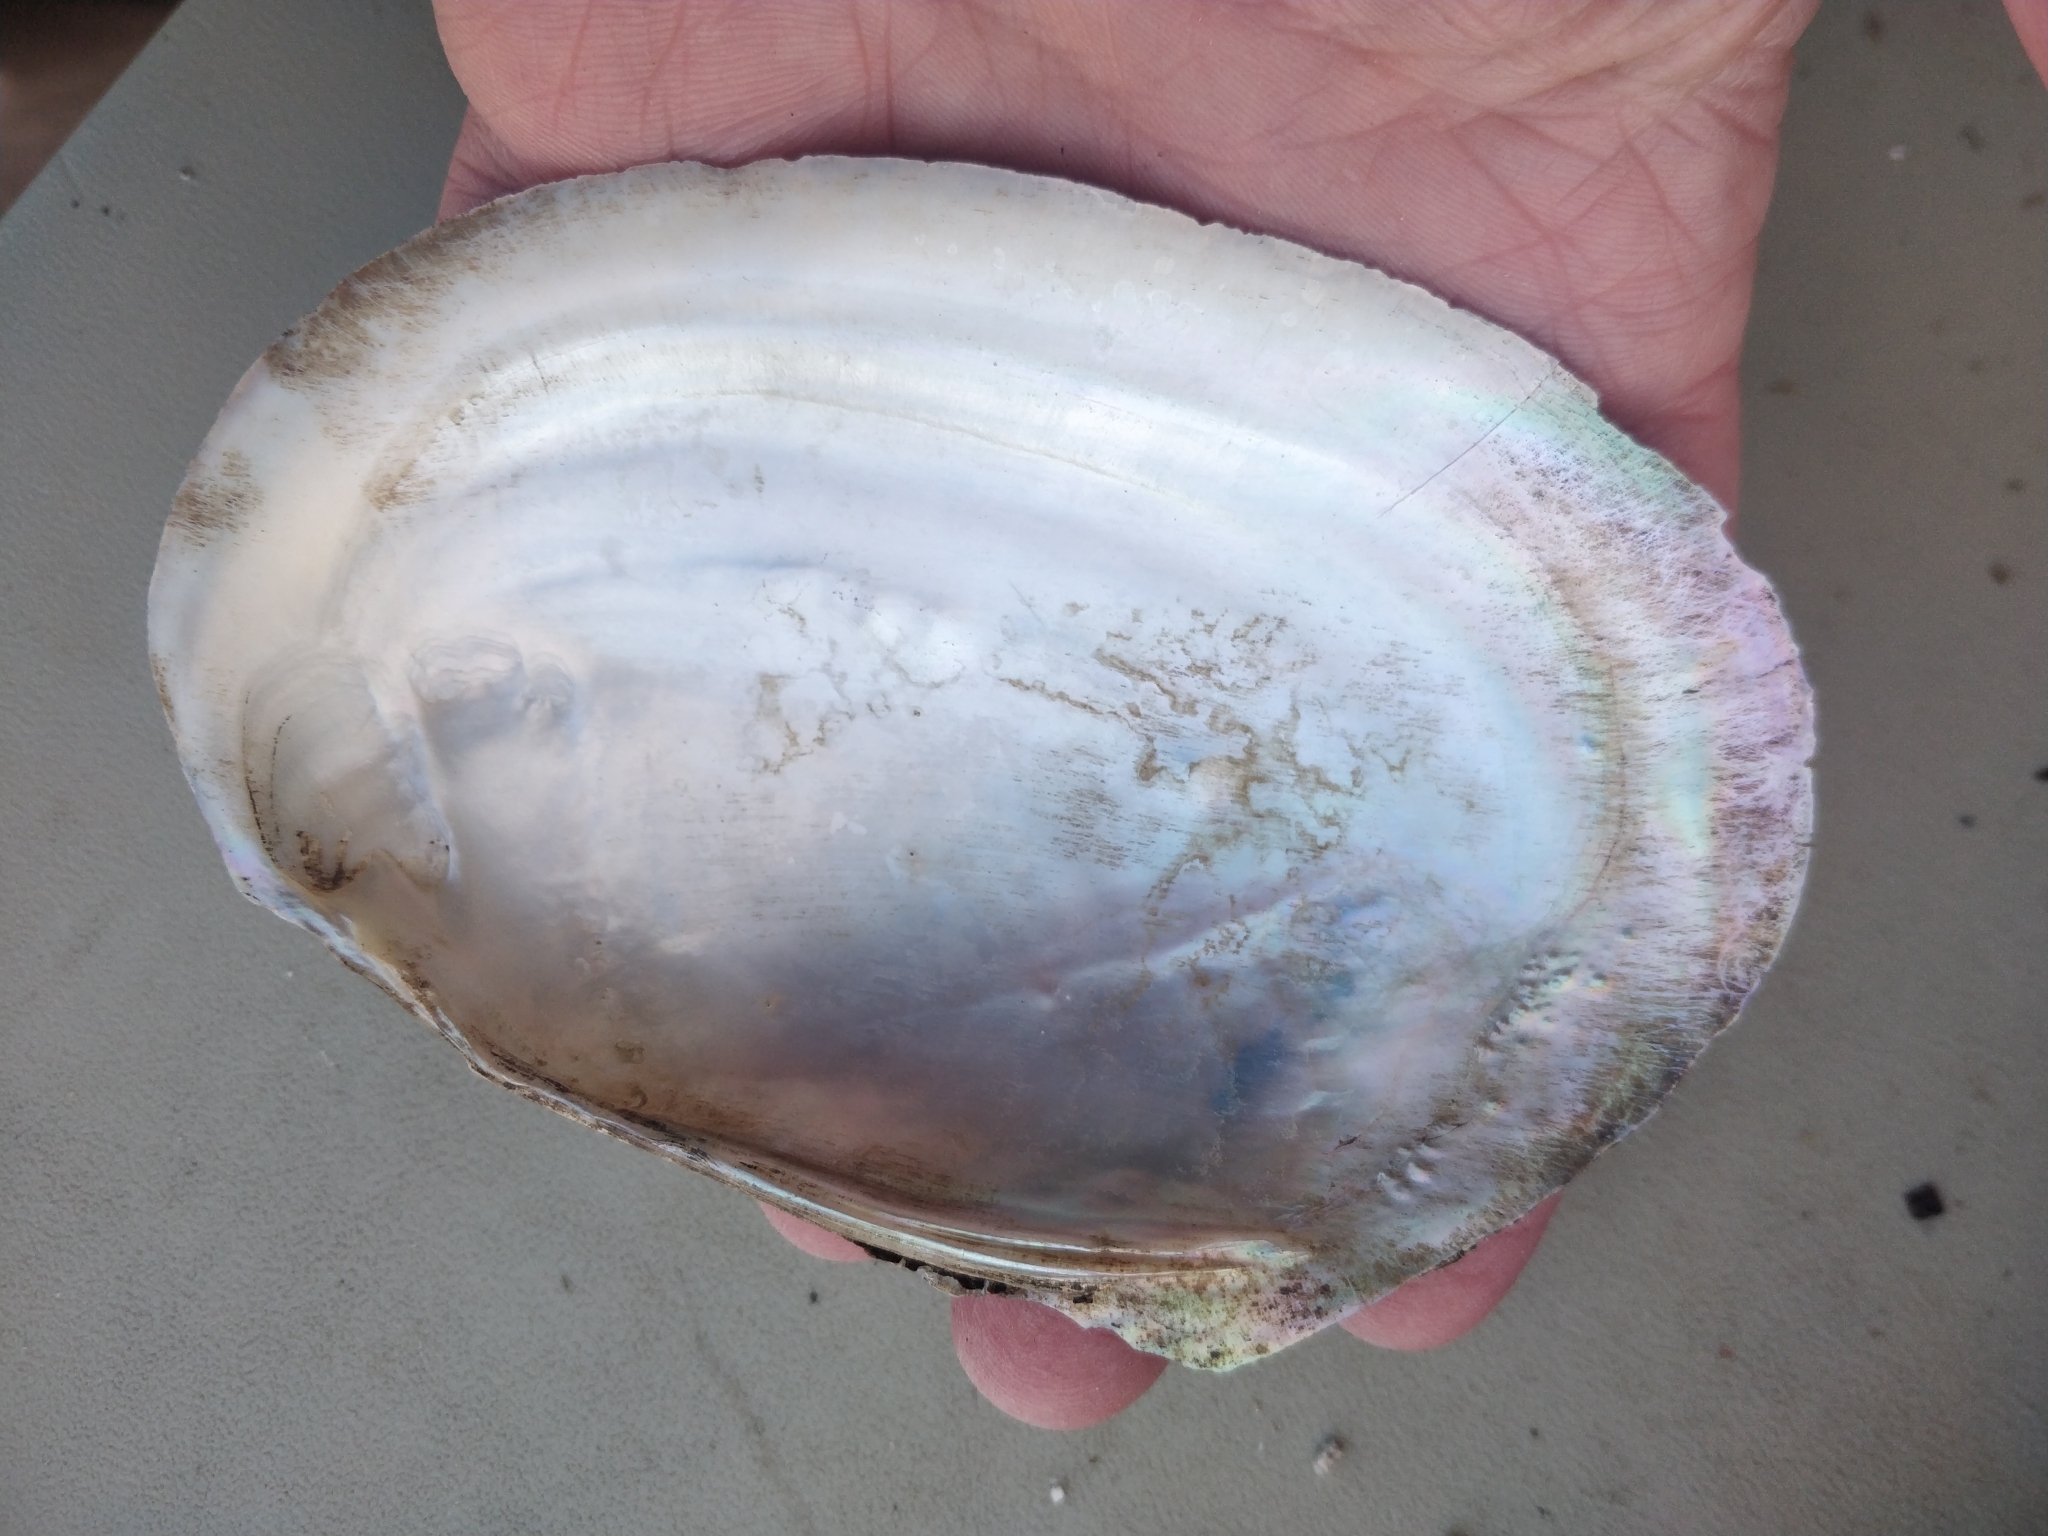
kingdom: Animalia
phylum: Mollusca
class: Bivalvia
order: Unionida
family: Unionidae
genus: Potamilus
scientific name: Potamilus fragilis
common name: Fragile papershell
